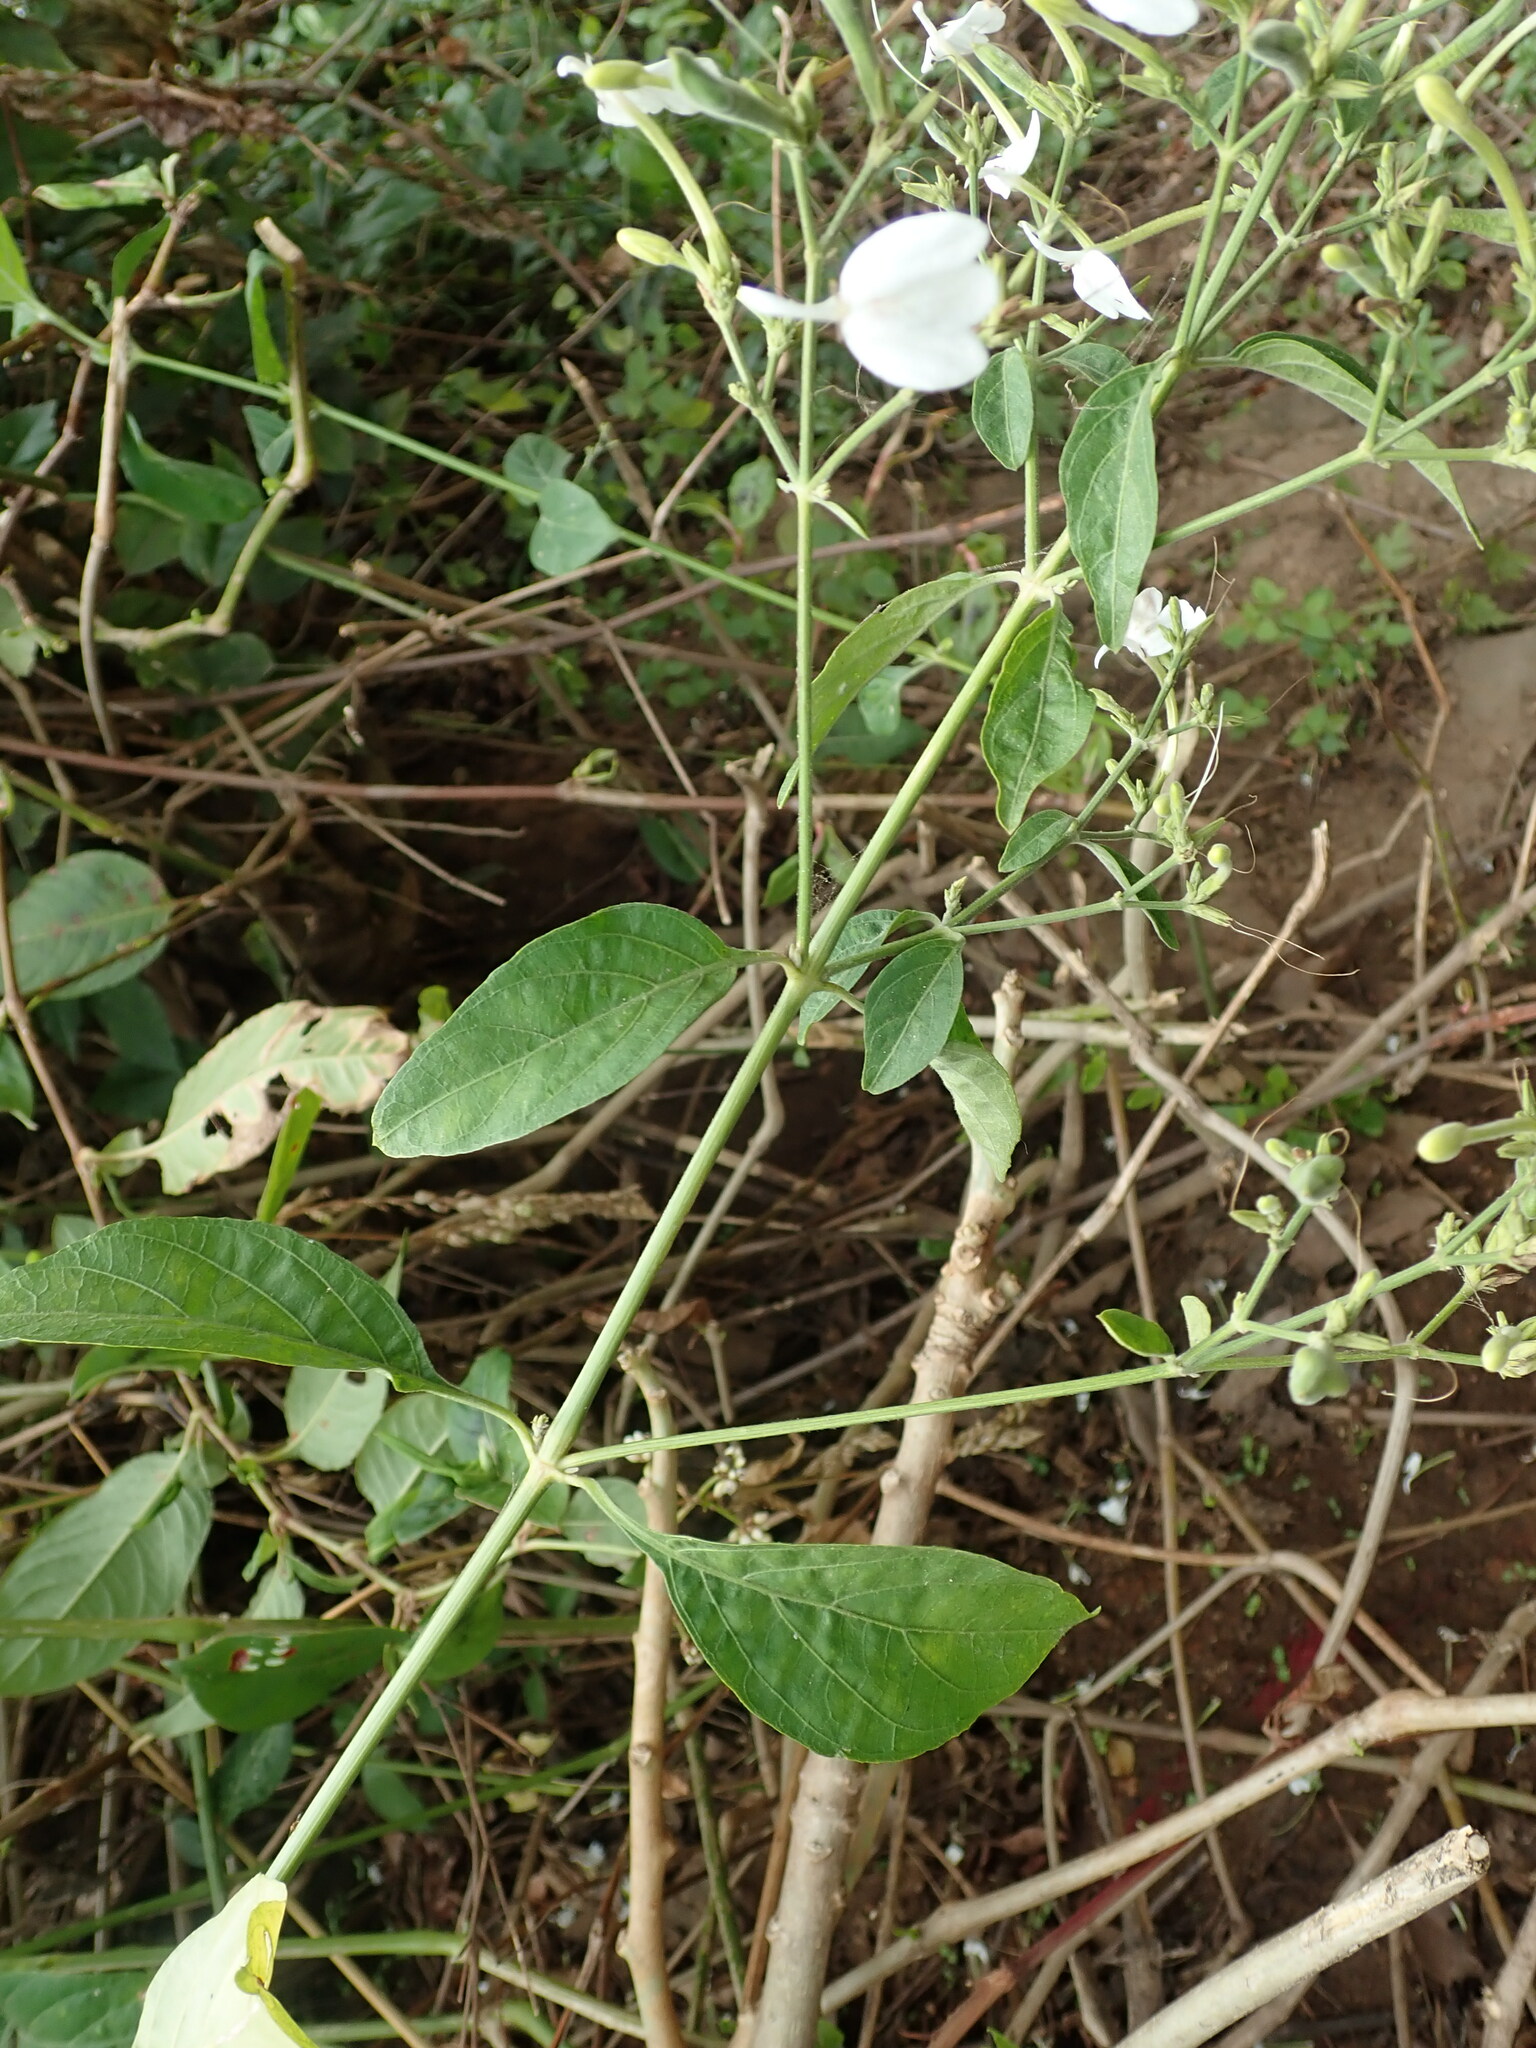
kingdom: Plantae
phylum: Tracheophyta
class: Magnoliopsida
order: Lamiales
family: Acanthaceae
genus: Rhinacanthus
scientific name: Rhinacanthus nasutus
